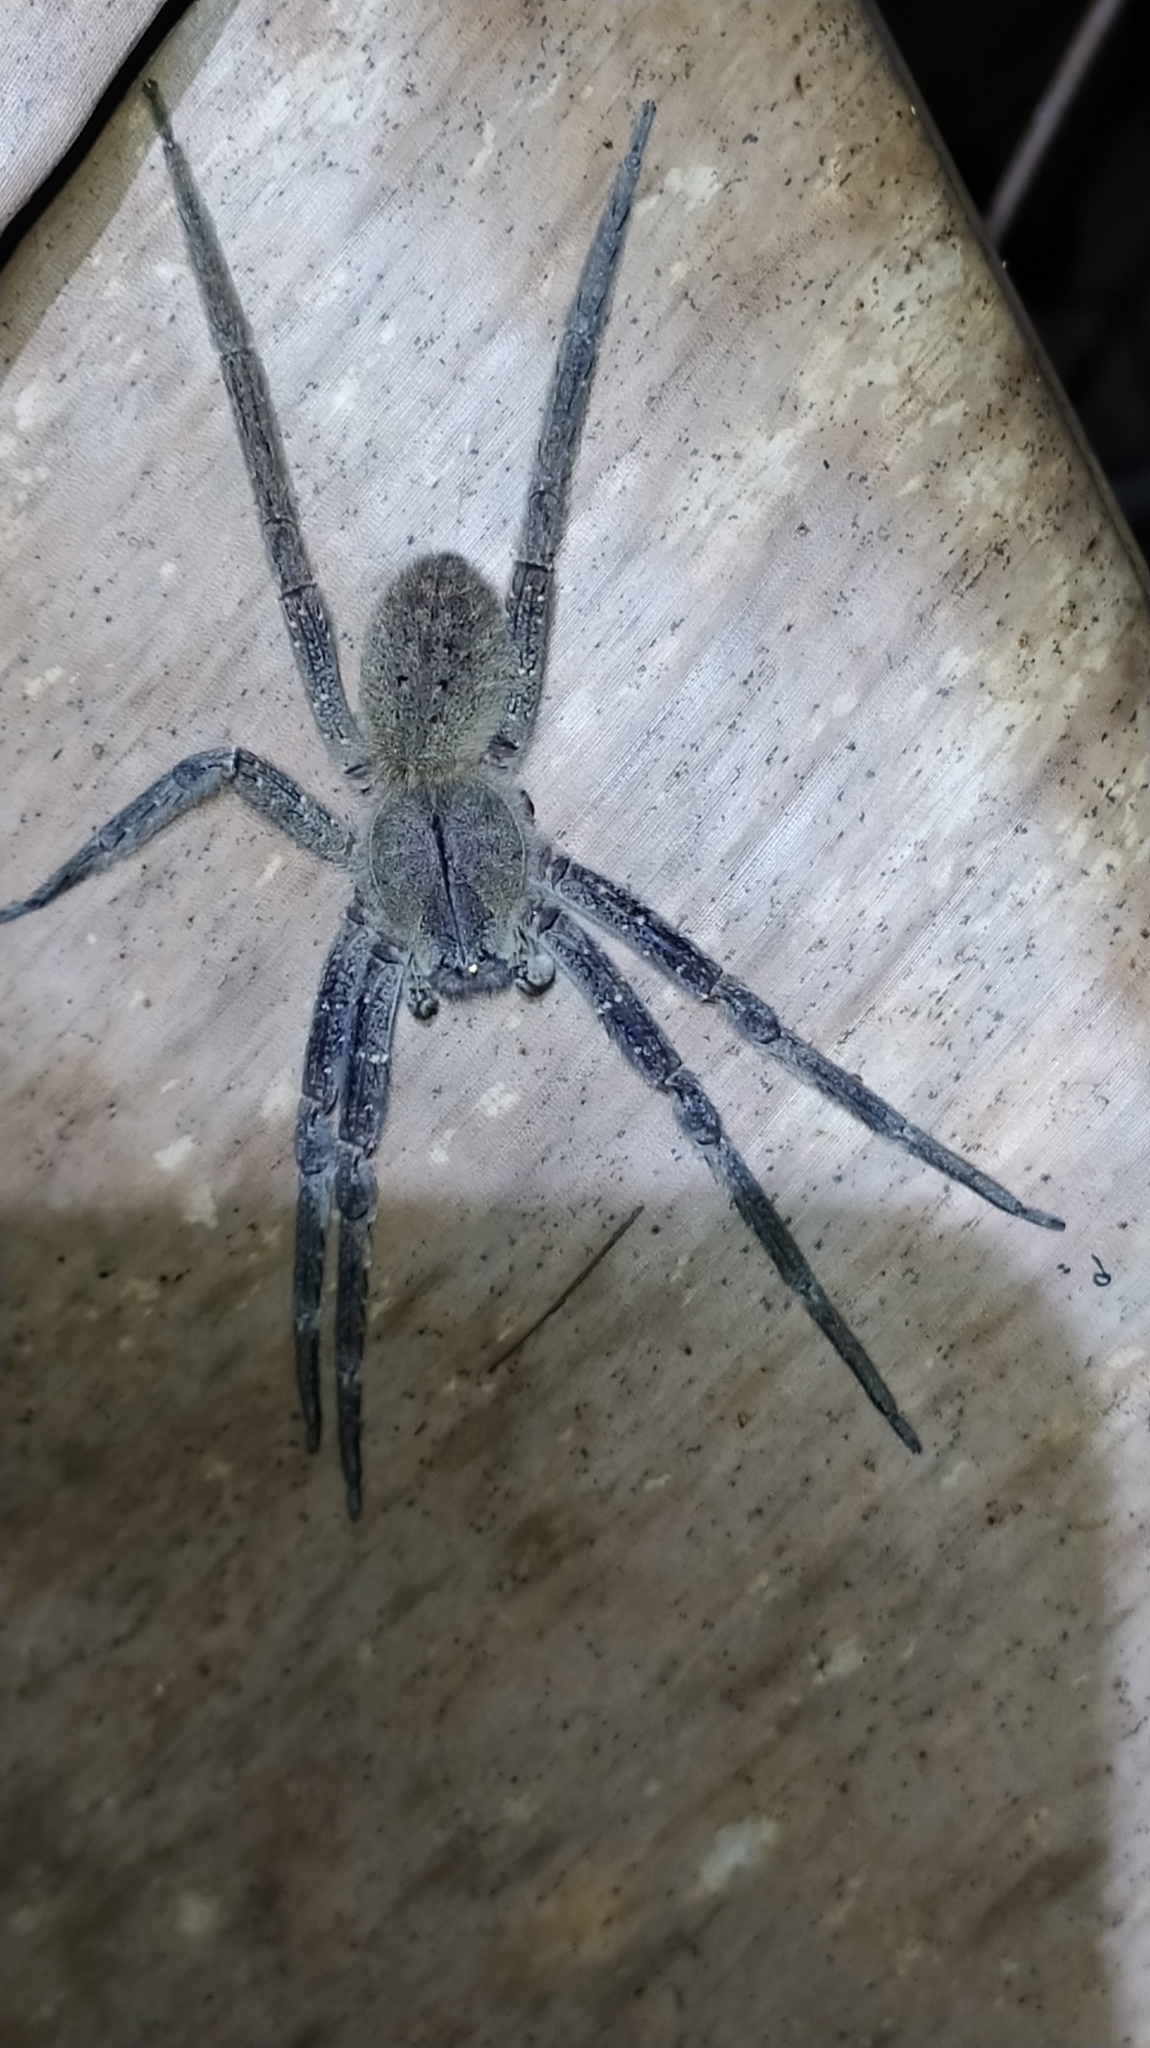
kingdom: Animalia
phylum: Arthropoda
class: Arachnida
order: Araneae
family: Ctenidae
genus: Phoneutria
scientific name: Phoneutria fera
